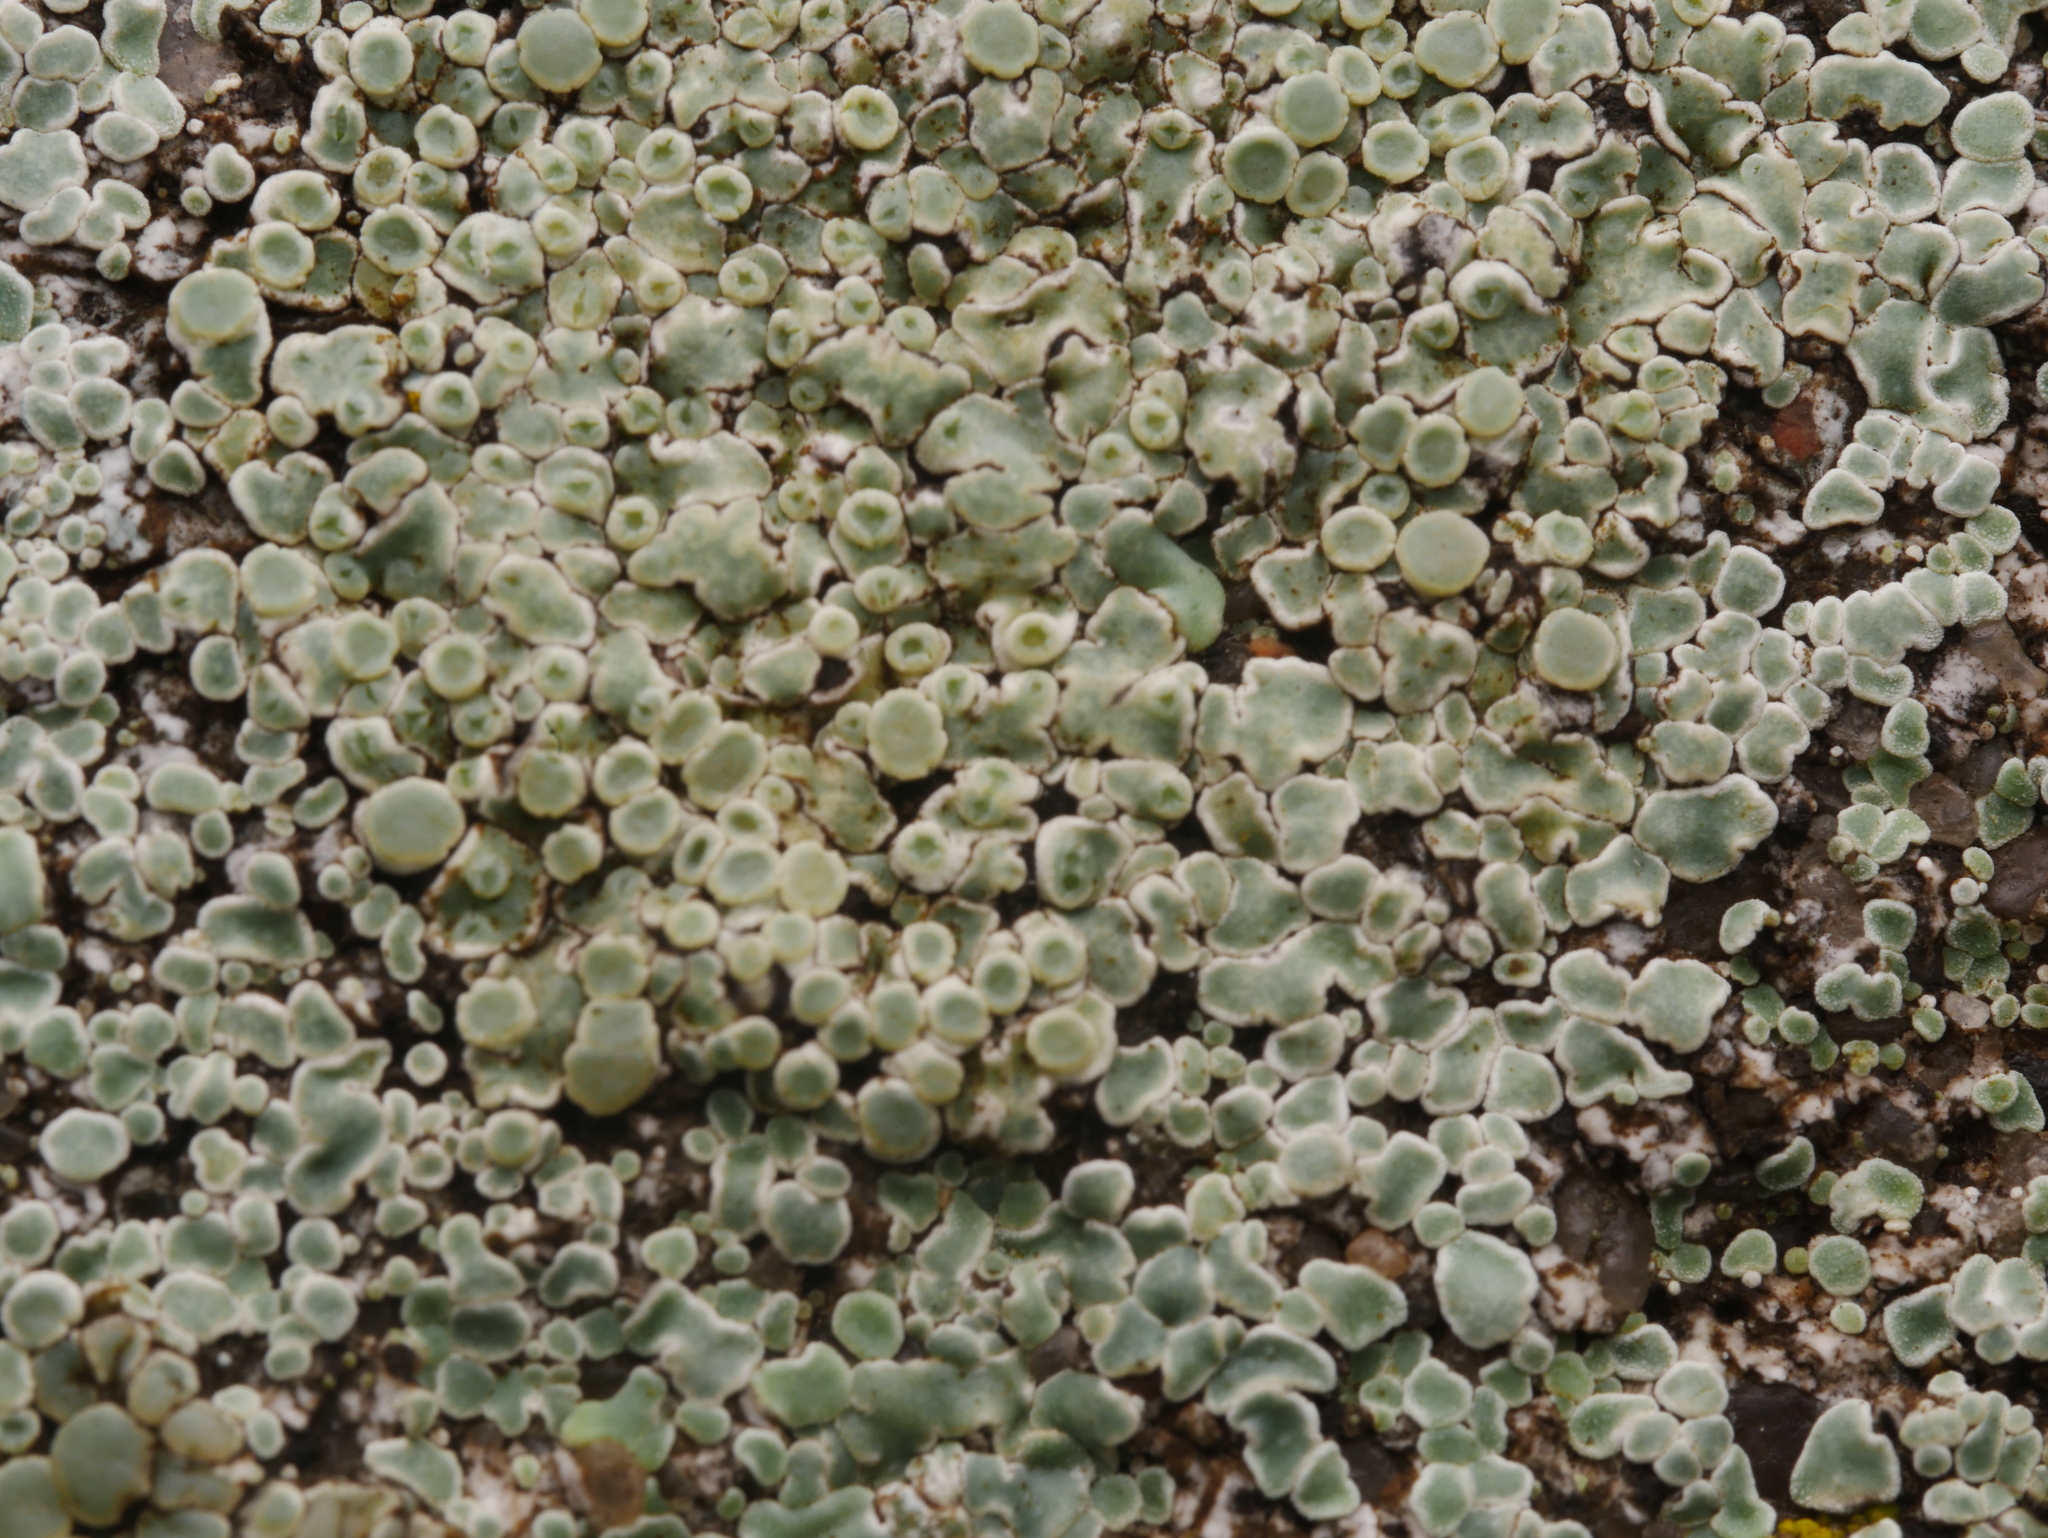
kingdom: Fungi
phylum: Ascomycota
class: Lecanoromycetes
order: Lecanorales
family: Lecanoraceae
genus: Protoparmeliopsis
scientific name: Protoparmeliopsis muralis
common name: Stonewall rim lichen
